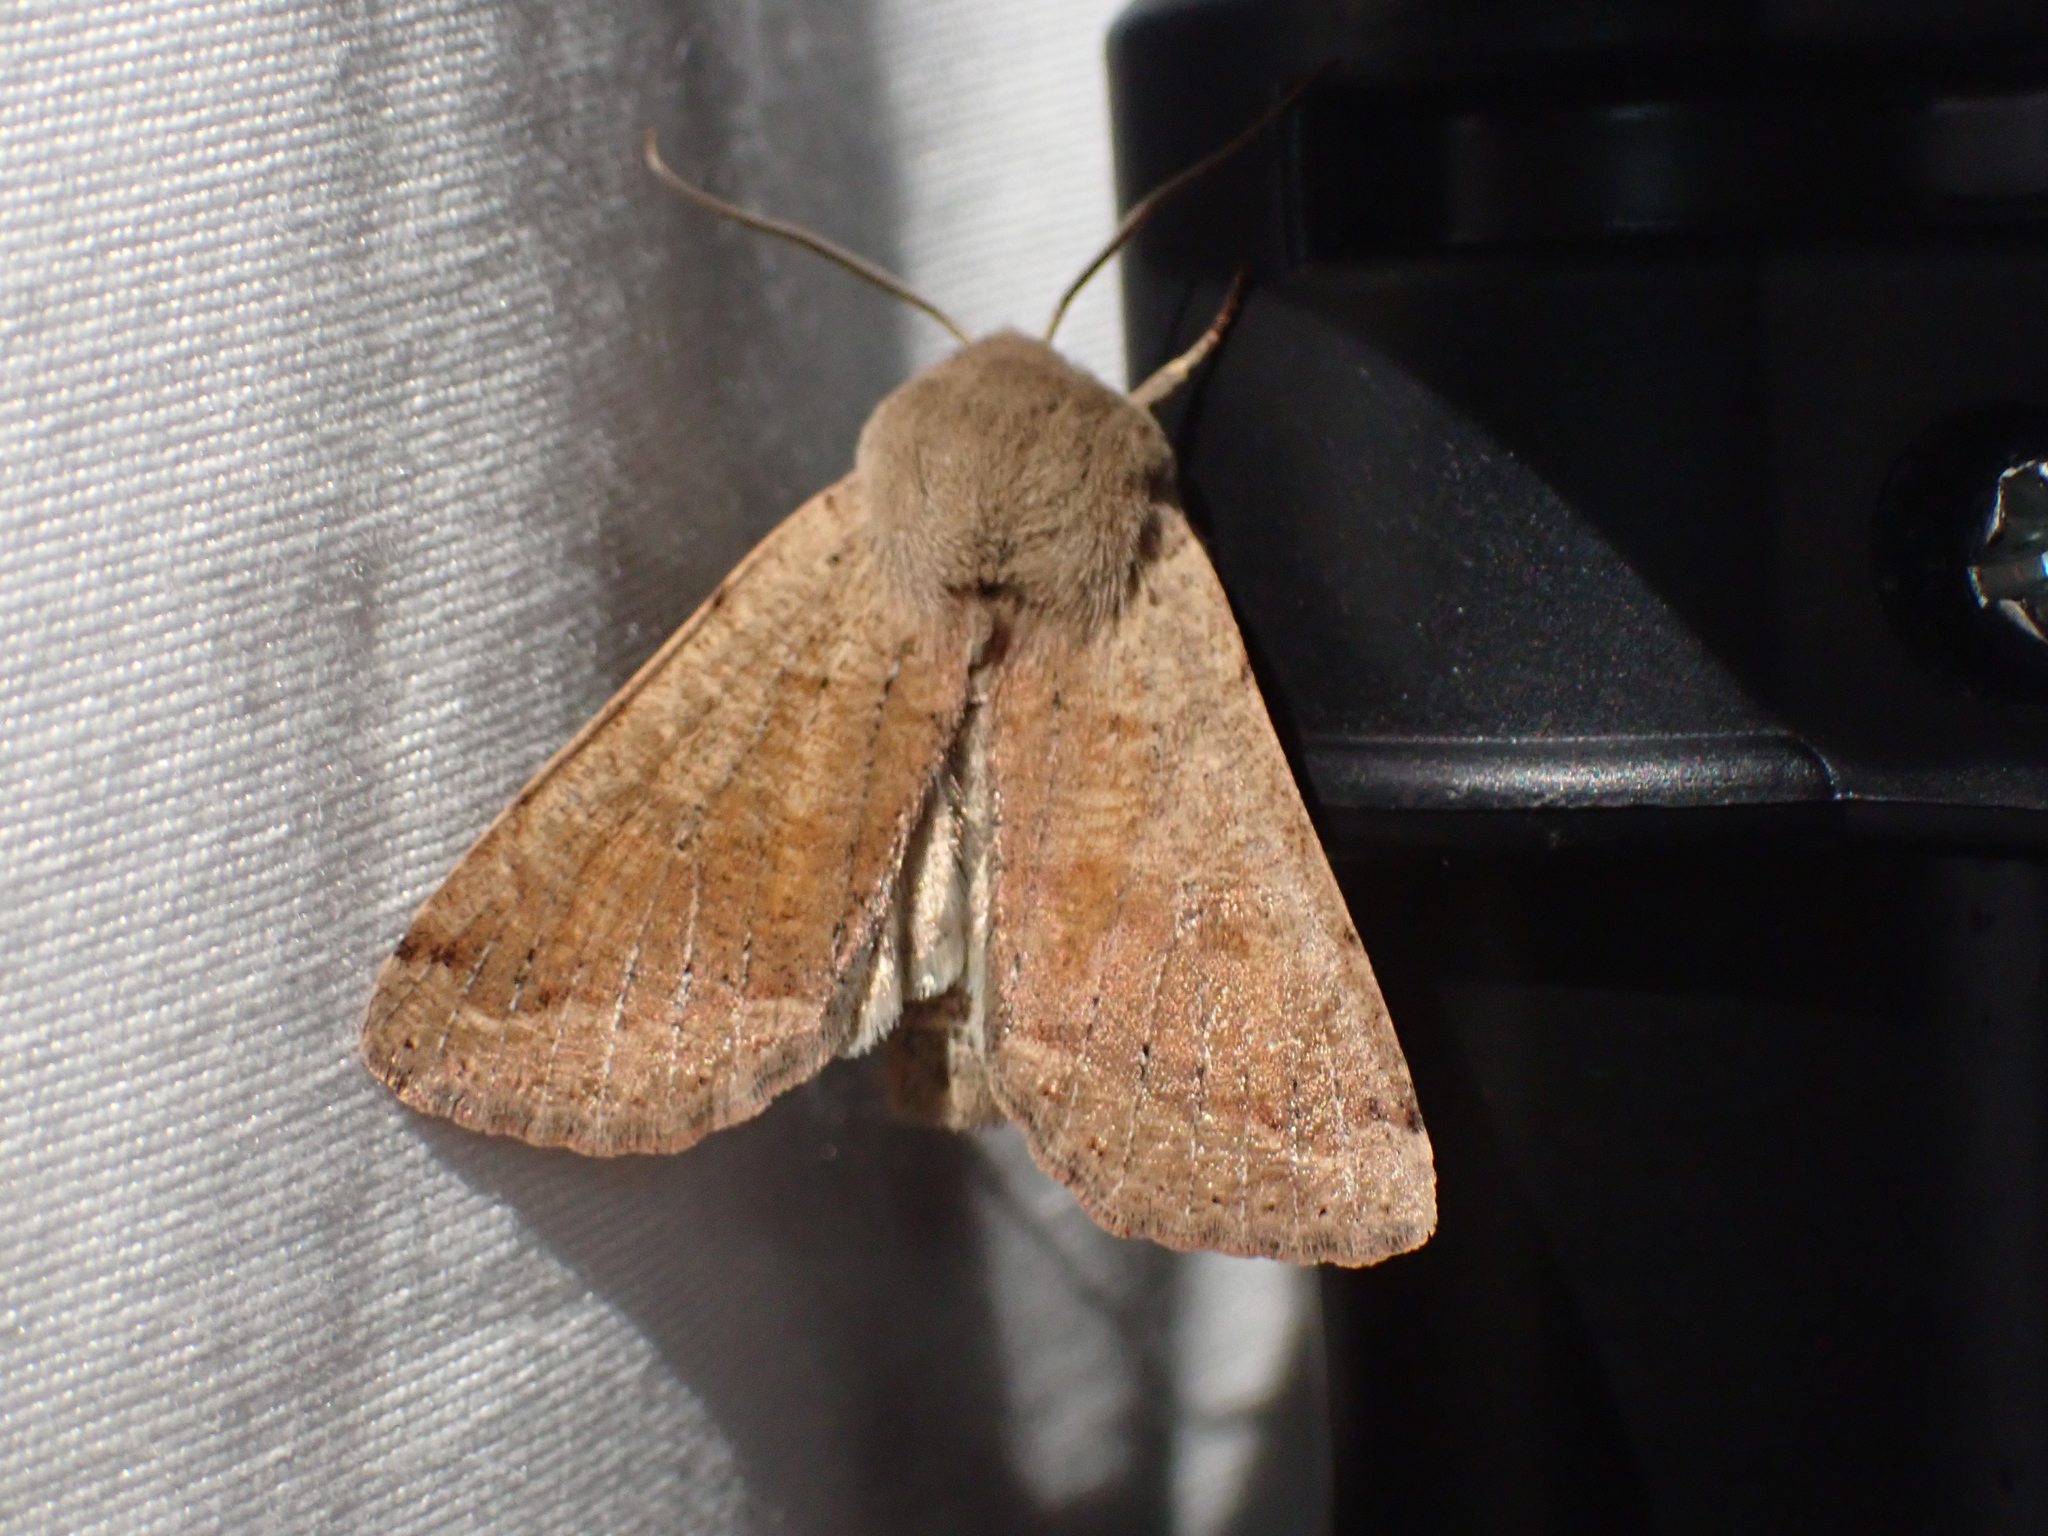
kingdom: Animalia
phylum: Arthropoda
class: Insecta
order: Lepidoptera
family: Noctuidae
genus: Orthosia
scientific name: Orthosia pacifica
